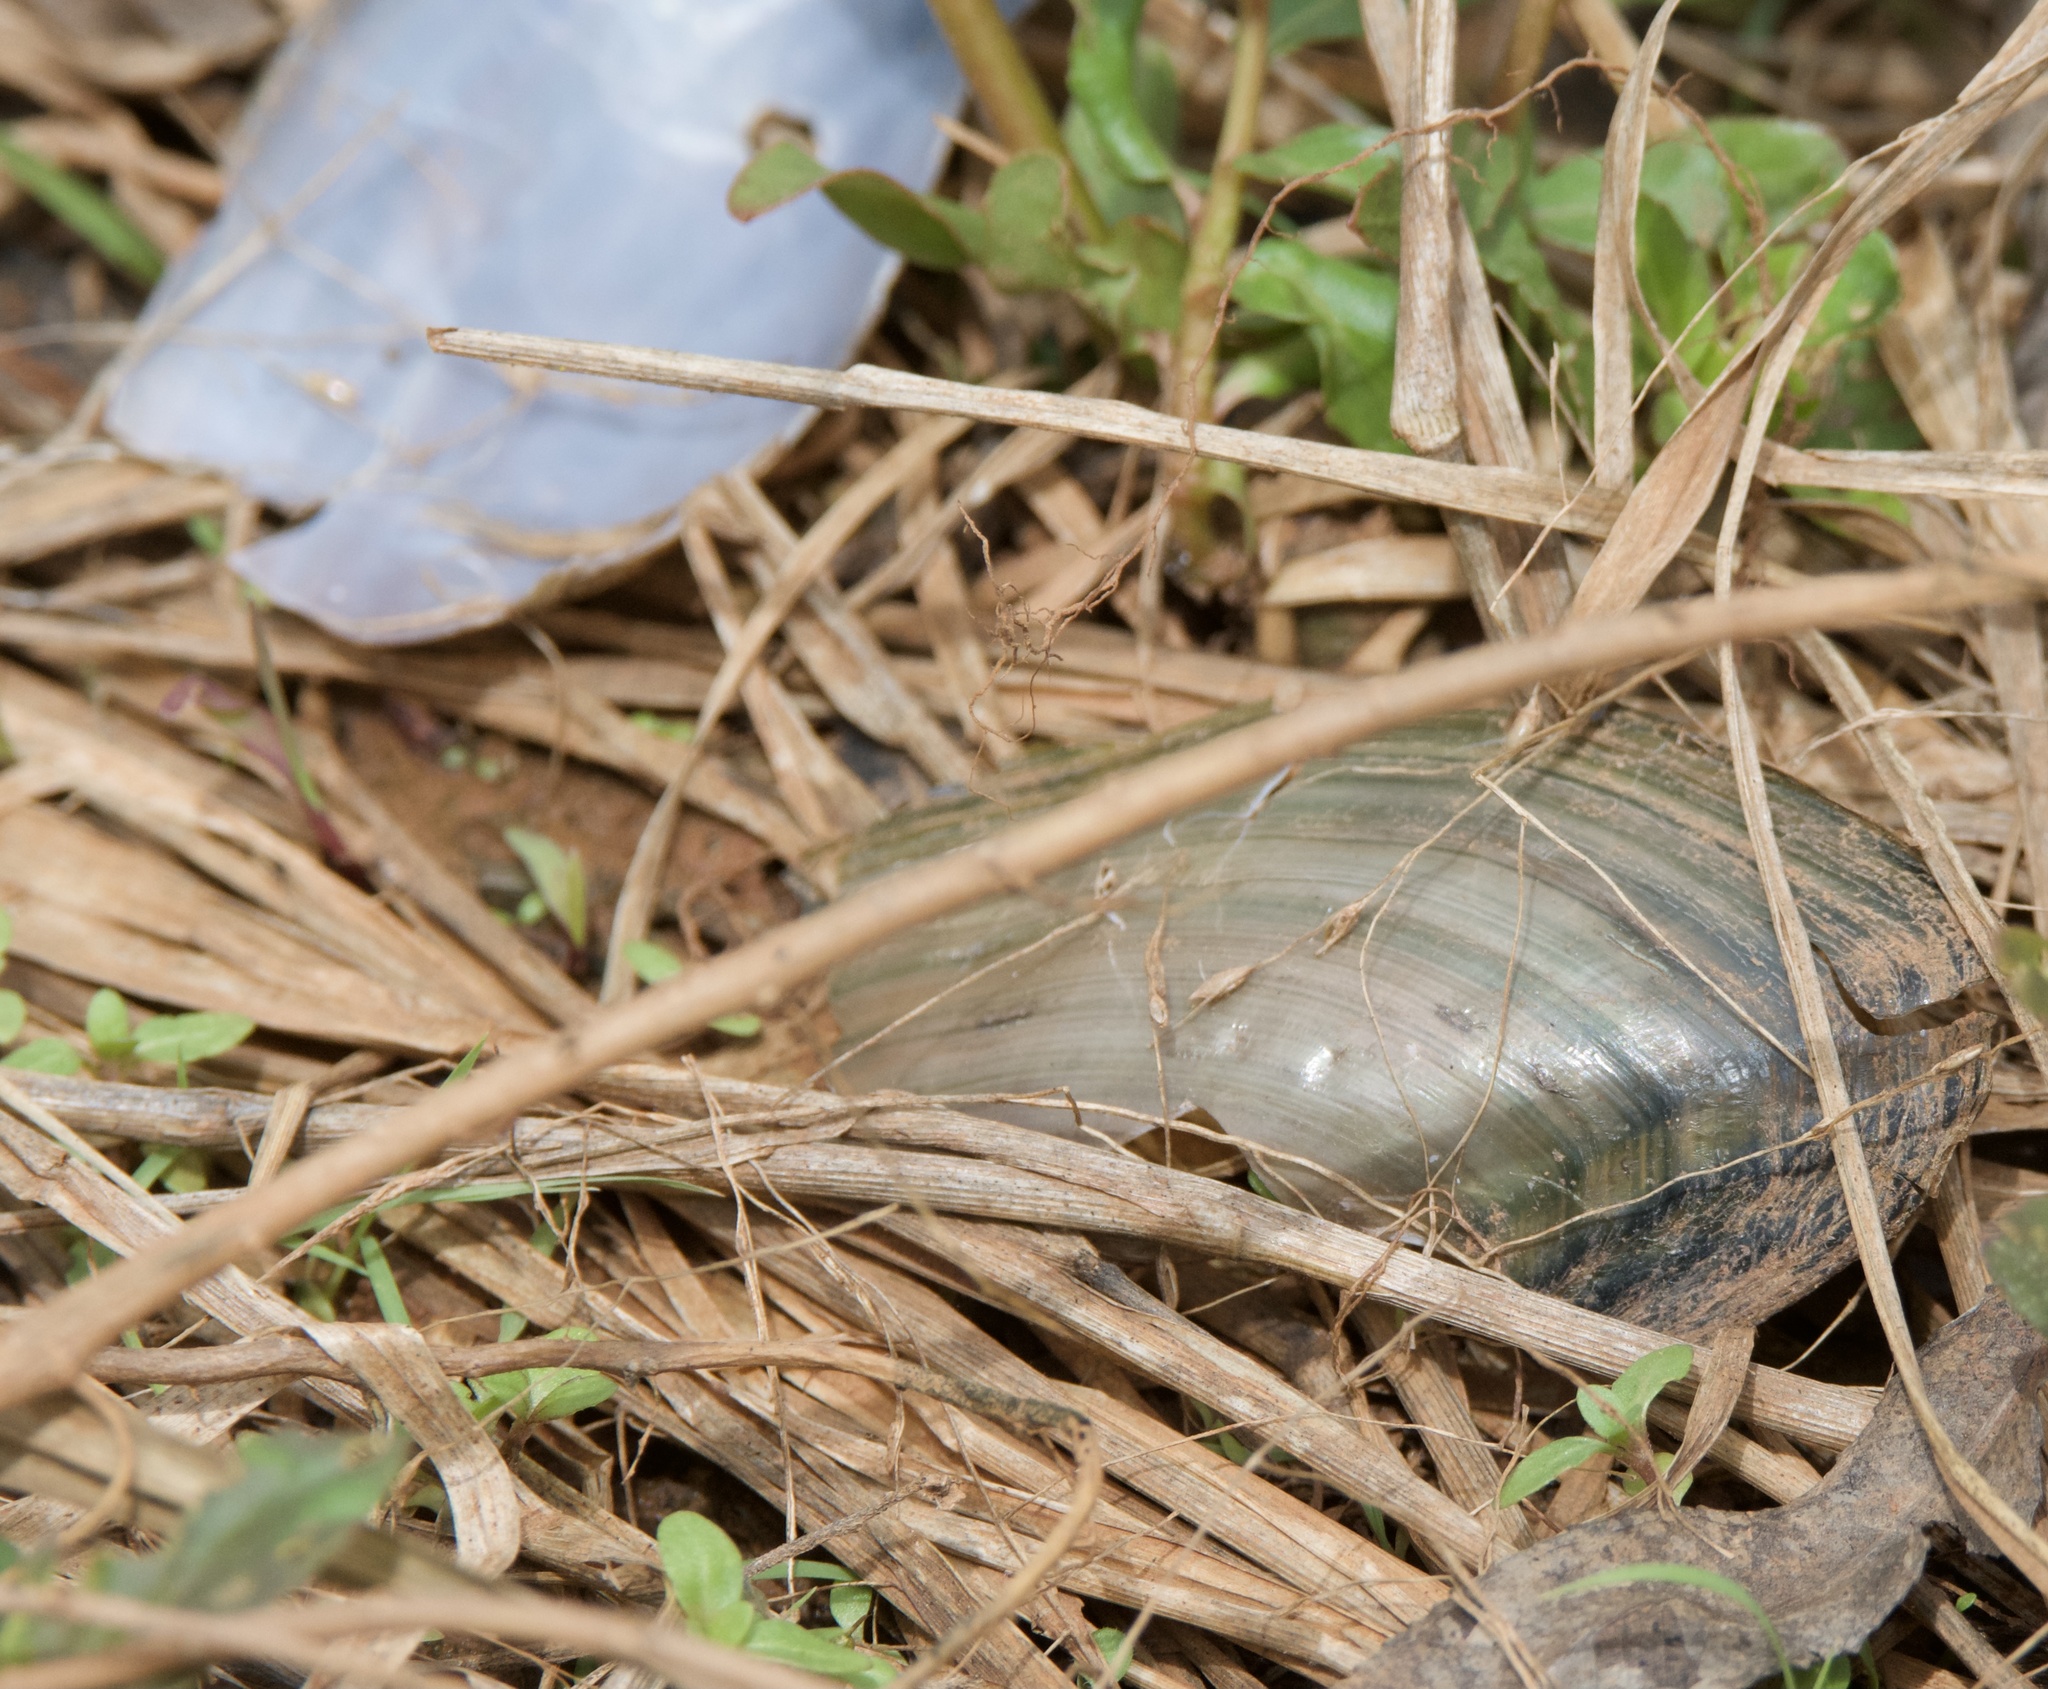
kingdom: Animalia
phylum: Mollusca
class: Bivalvia
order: Unionida
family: Unionidae
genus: Utterbackia
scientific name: Utterbackia imbecillis
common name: Paper pondshell
